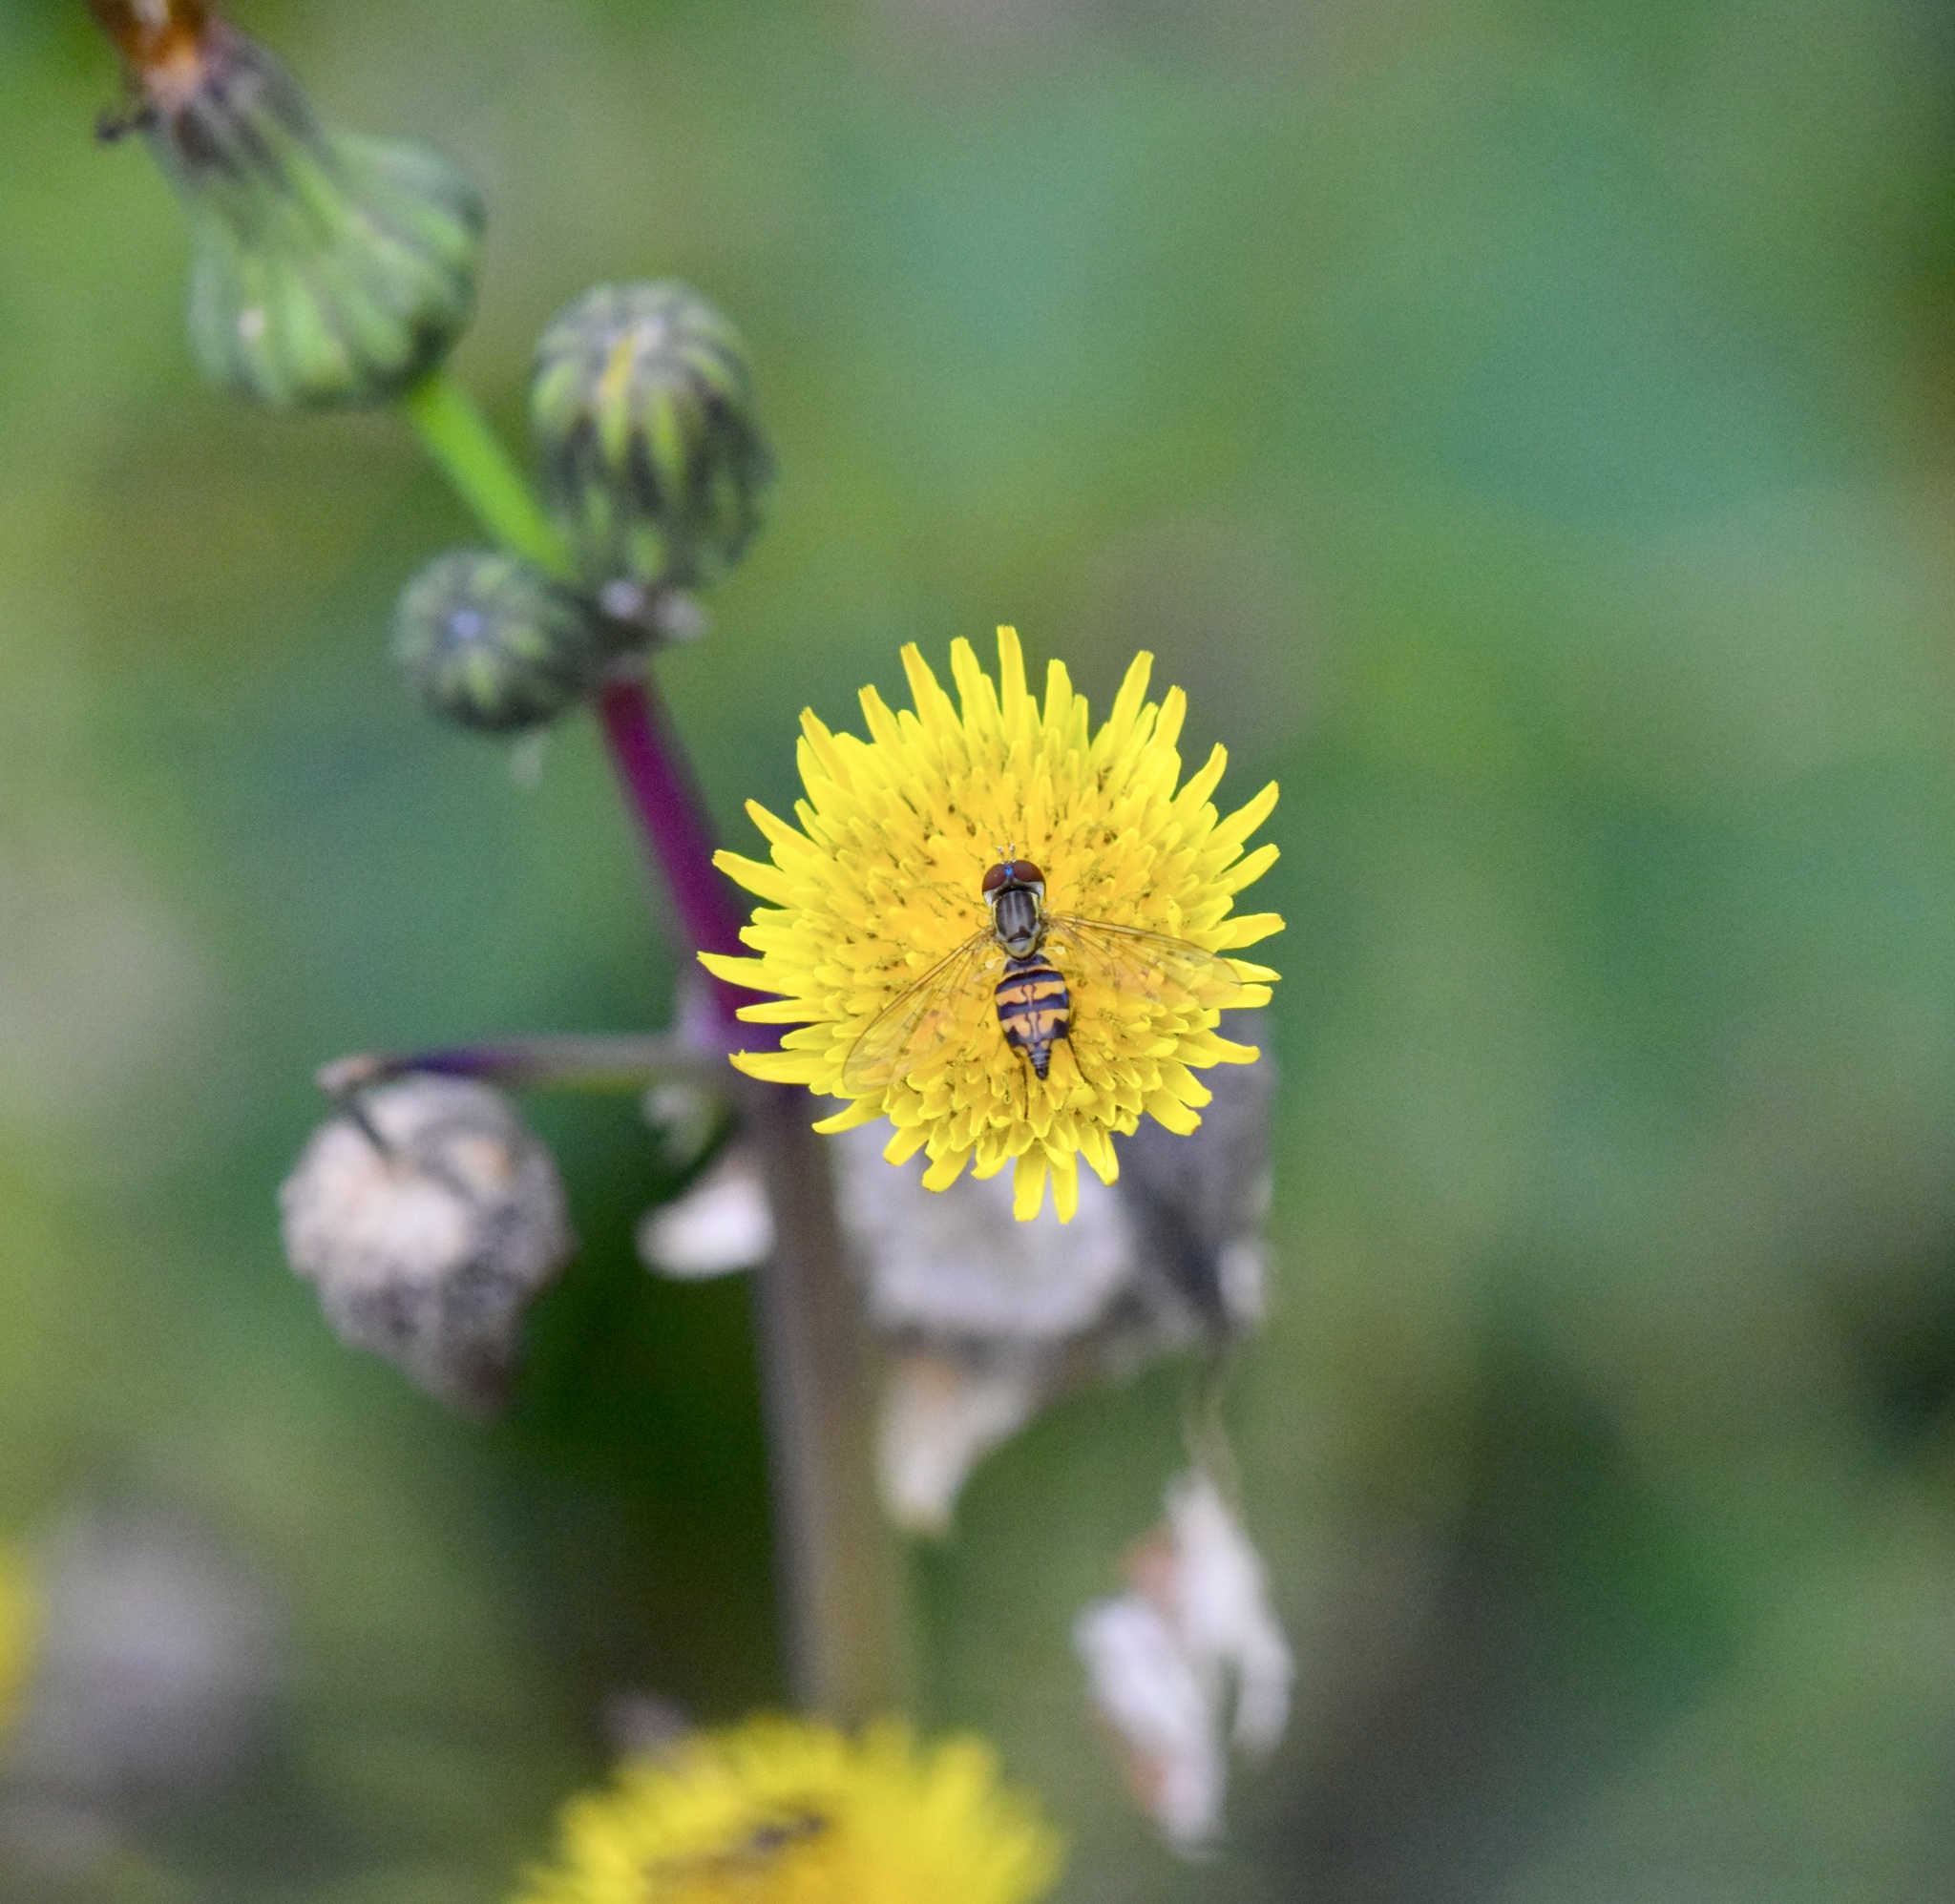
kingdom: Animalia
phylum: Arthropoda
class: Insecta
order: Diptera
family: Syrphidae
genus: Toxomerus
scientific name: Toxomerus geminatus
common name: Eastern calligrapher
